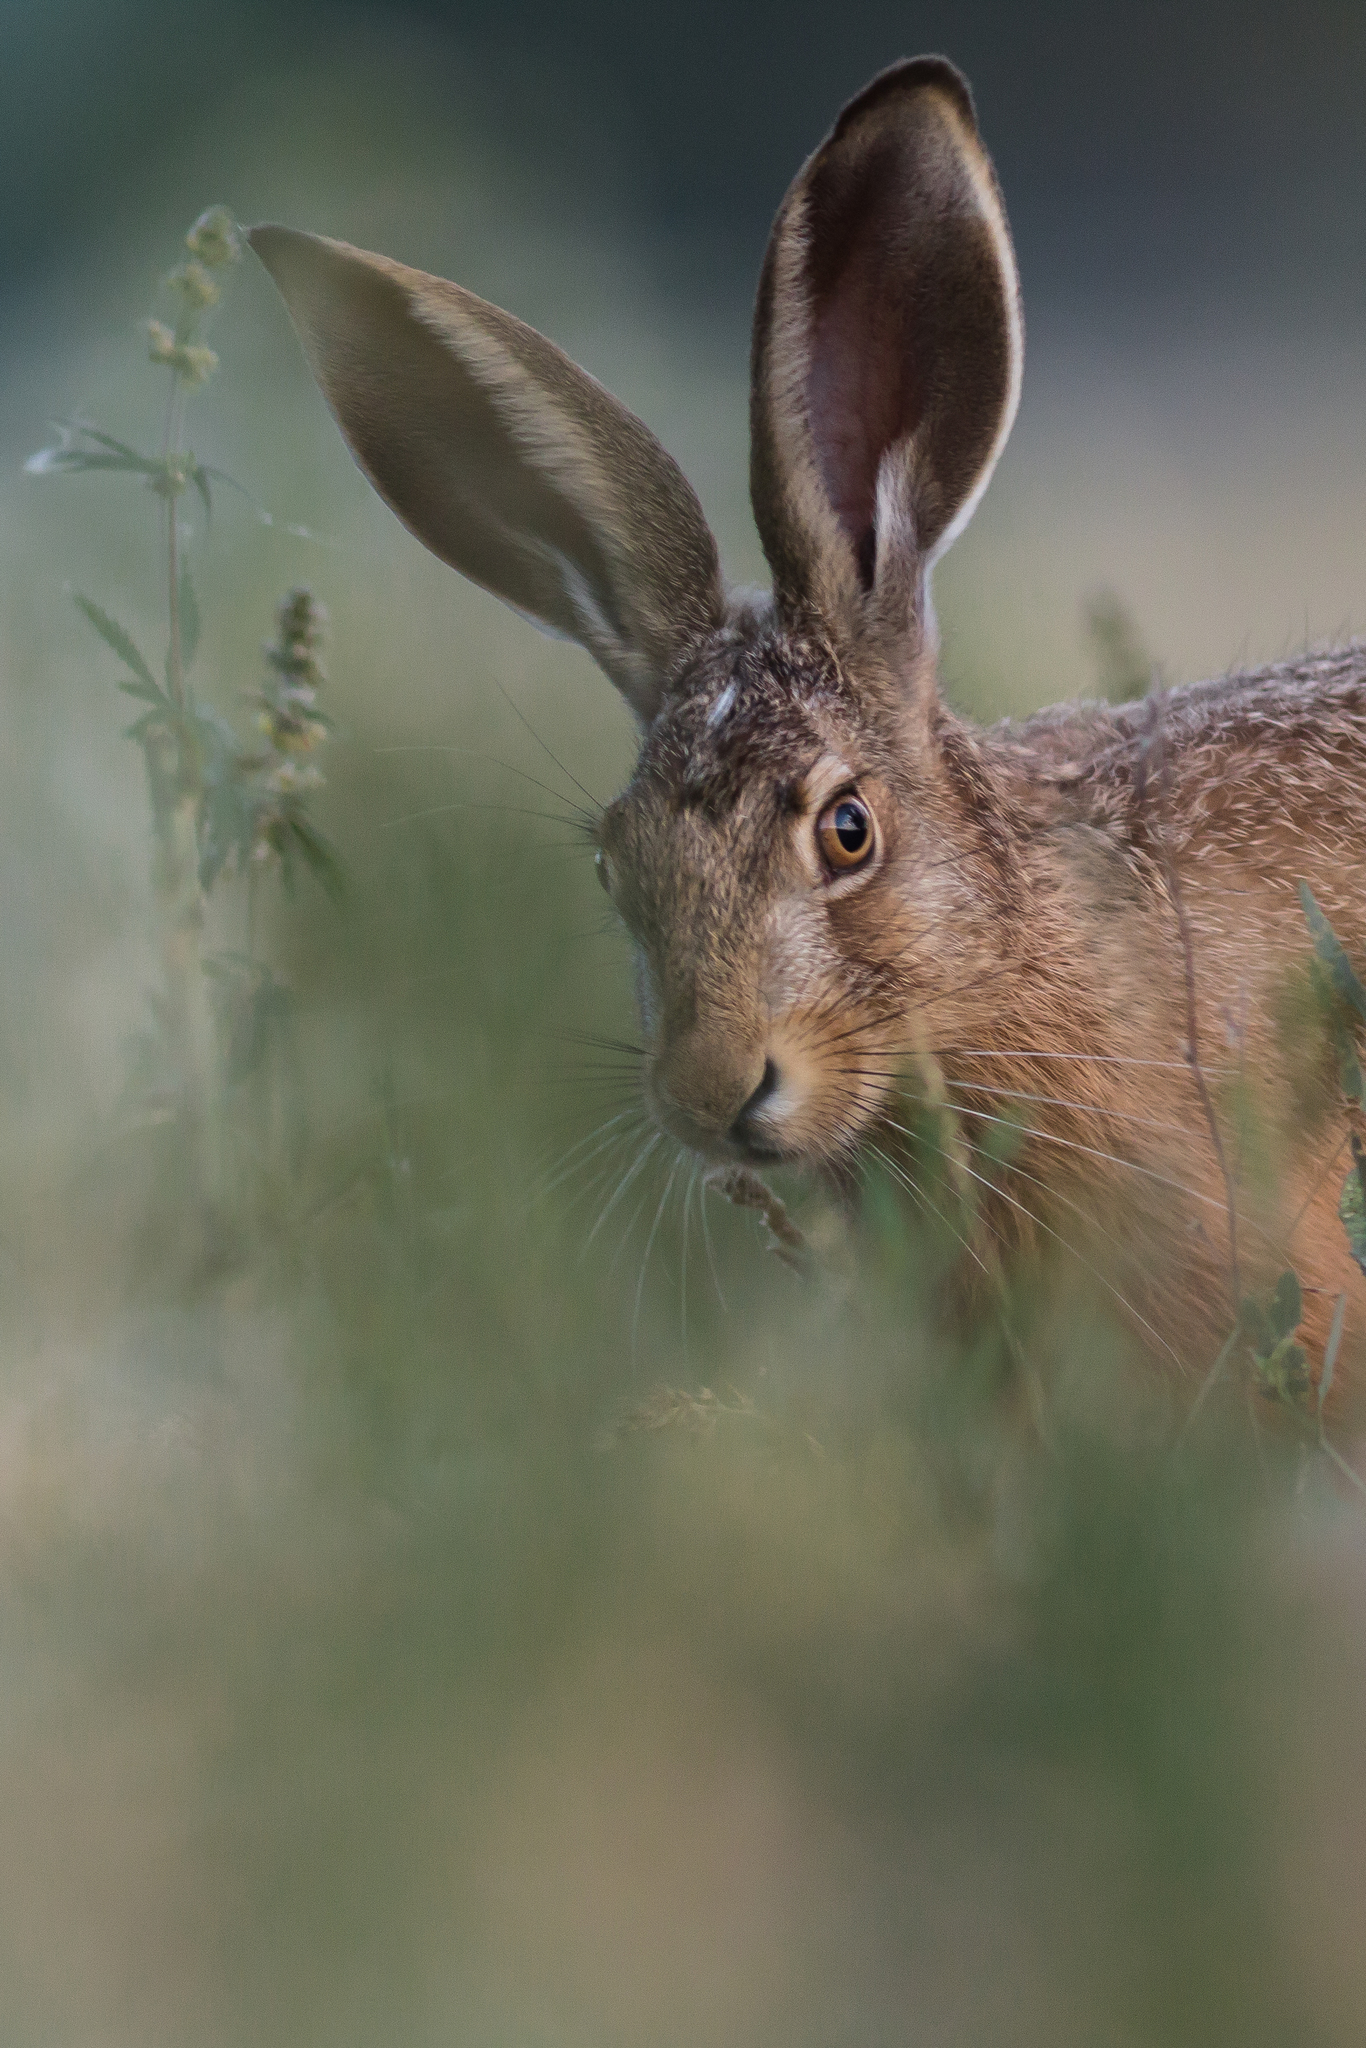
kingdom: Animalia
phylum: Chordata
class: Mammalia
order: Lagomorpha
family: Leporidae
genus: Lepus
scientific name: Lepus europaeus
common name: European hare
